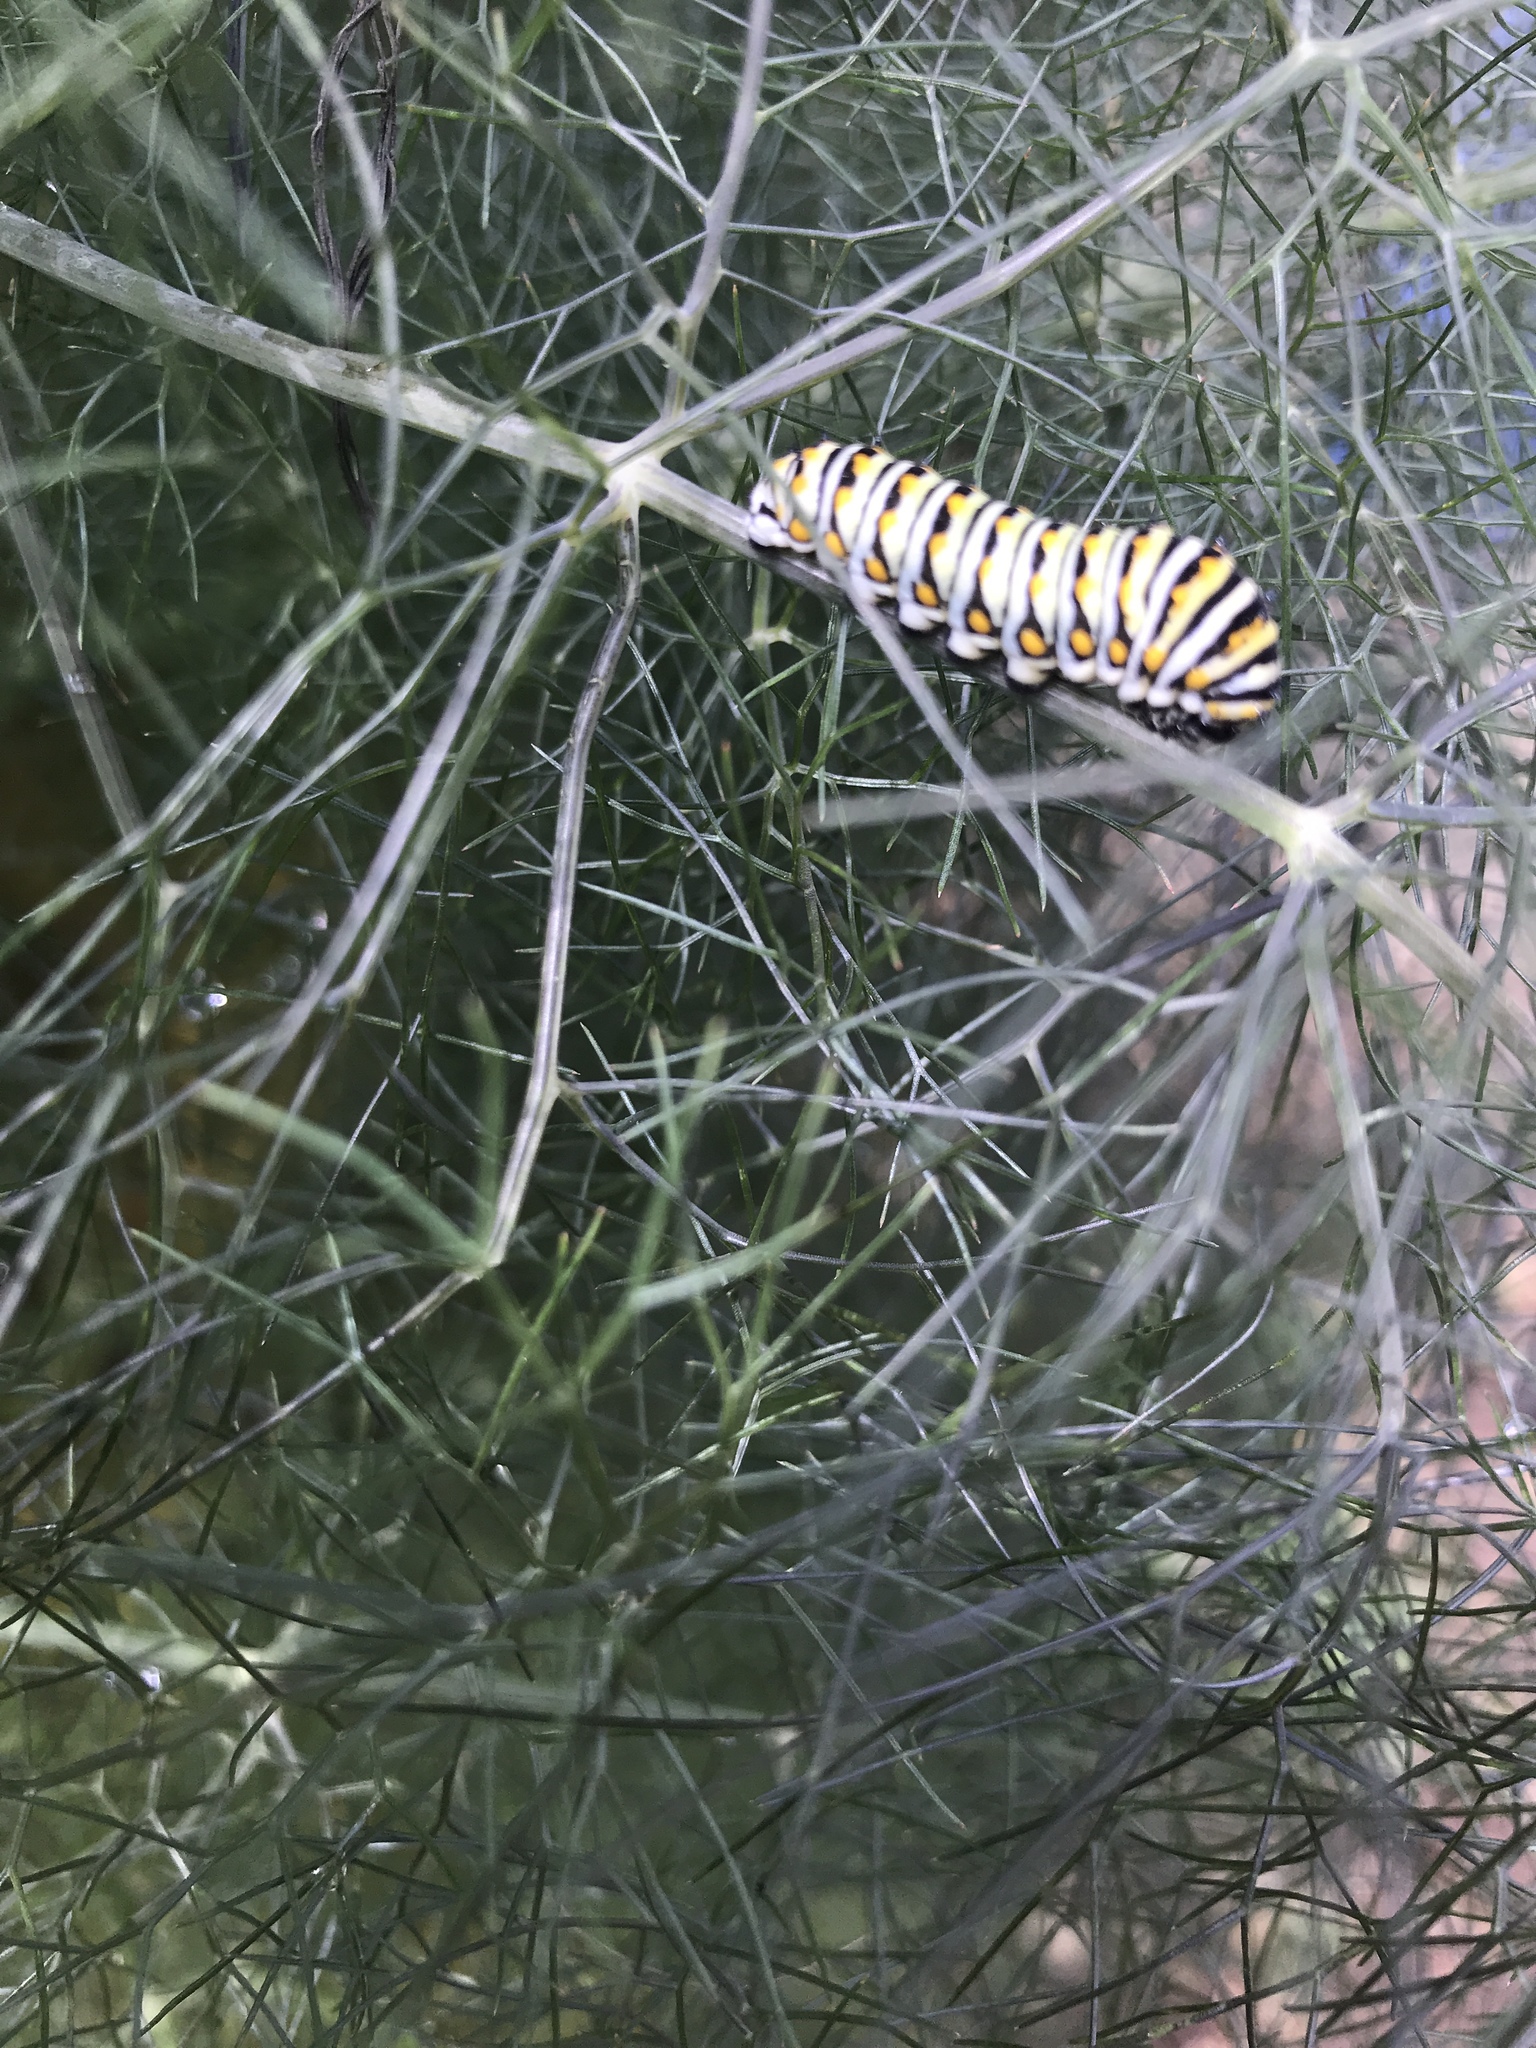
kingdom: Animalia
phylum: Arthropoda
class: Insecta
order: Lepidoptera
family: Papilionidae
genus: Papilio
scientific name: Papilio polyxenes
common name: Black swallowtail
